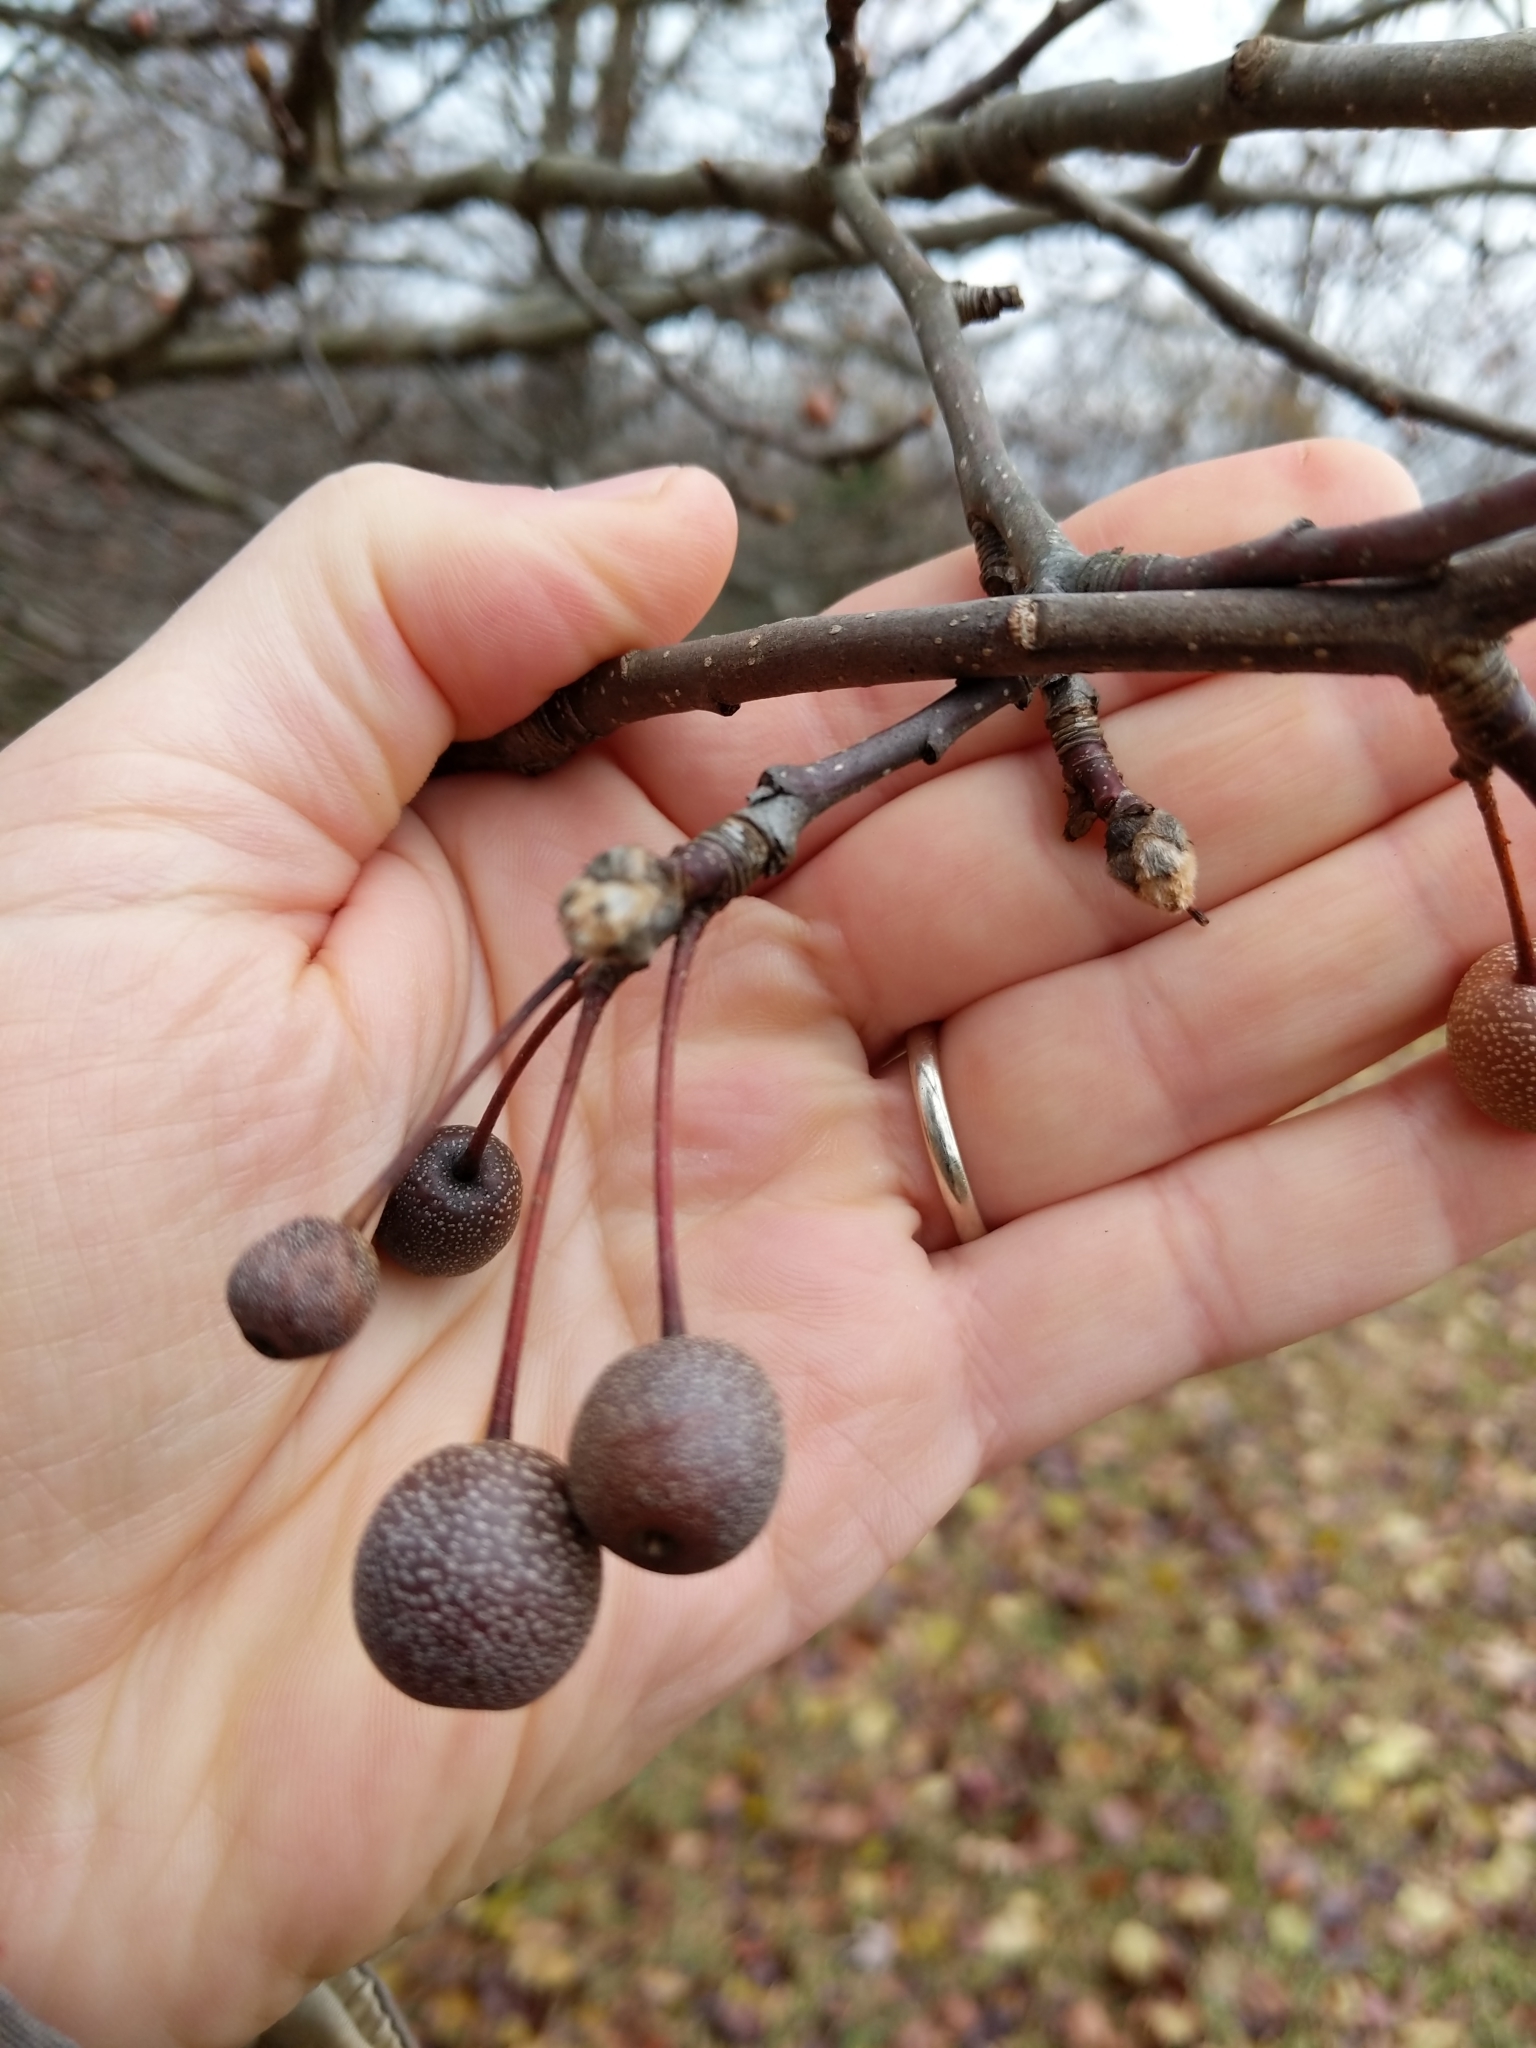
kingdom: Plantae
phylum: Tracheophyta
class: Magnoliopsida
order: Rosales
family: Rosaceae
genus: Pyrus
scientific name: Pyrus calleryana
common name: Callery pear
